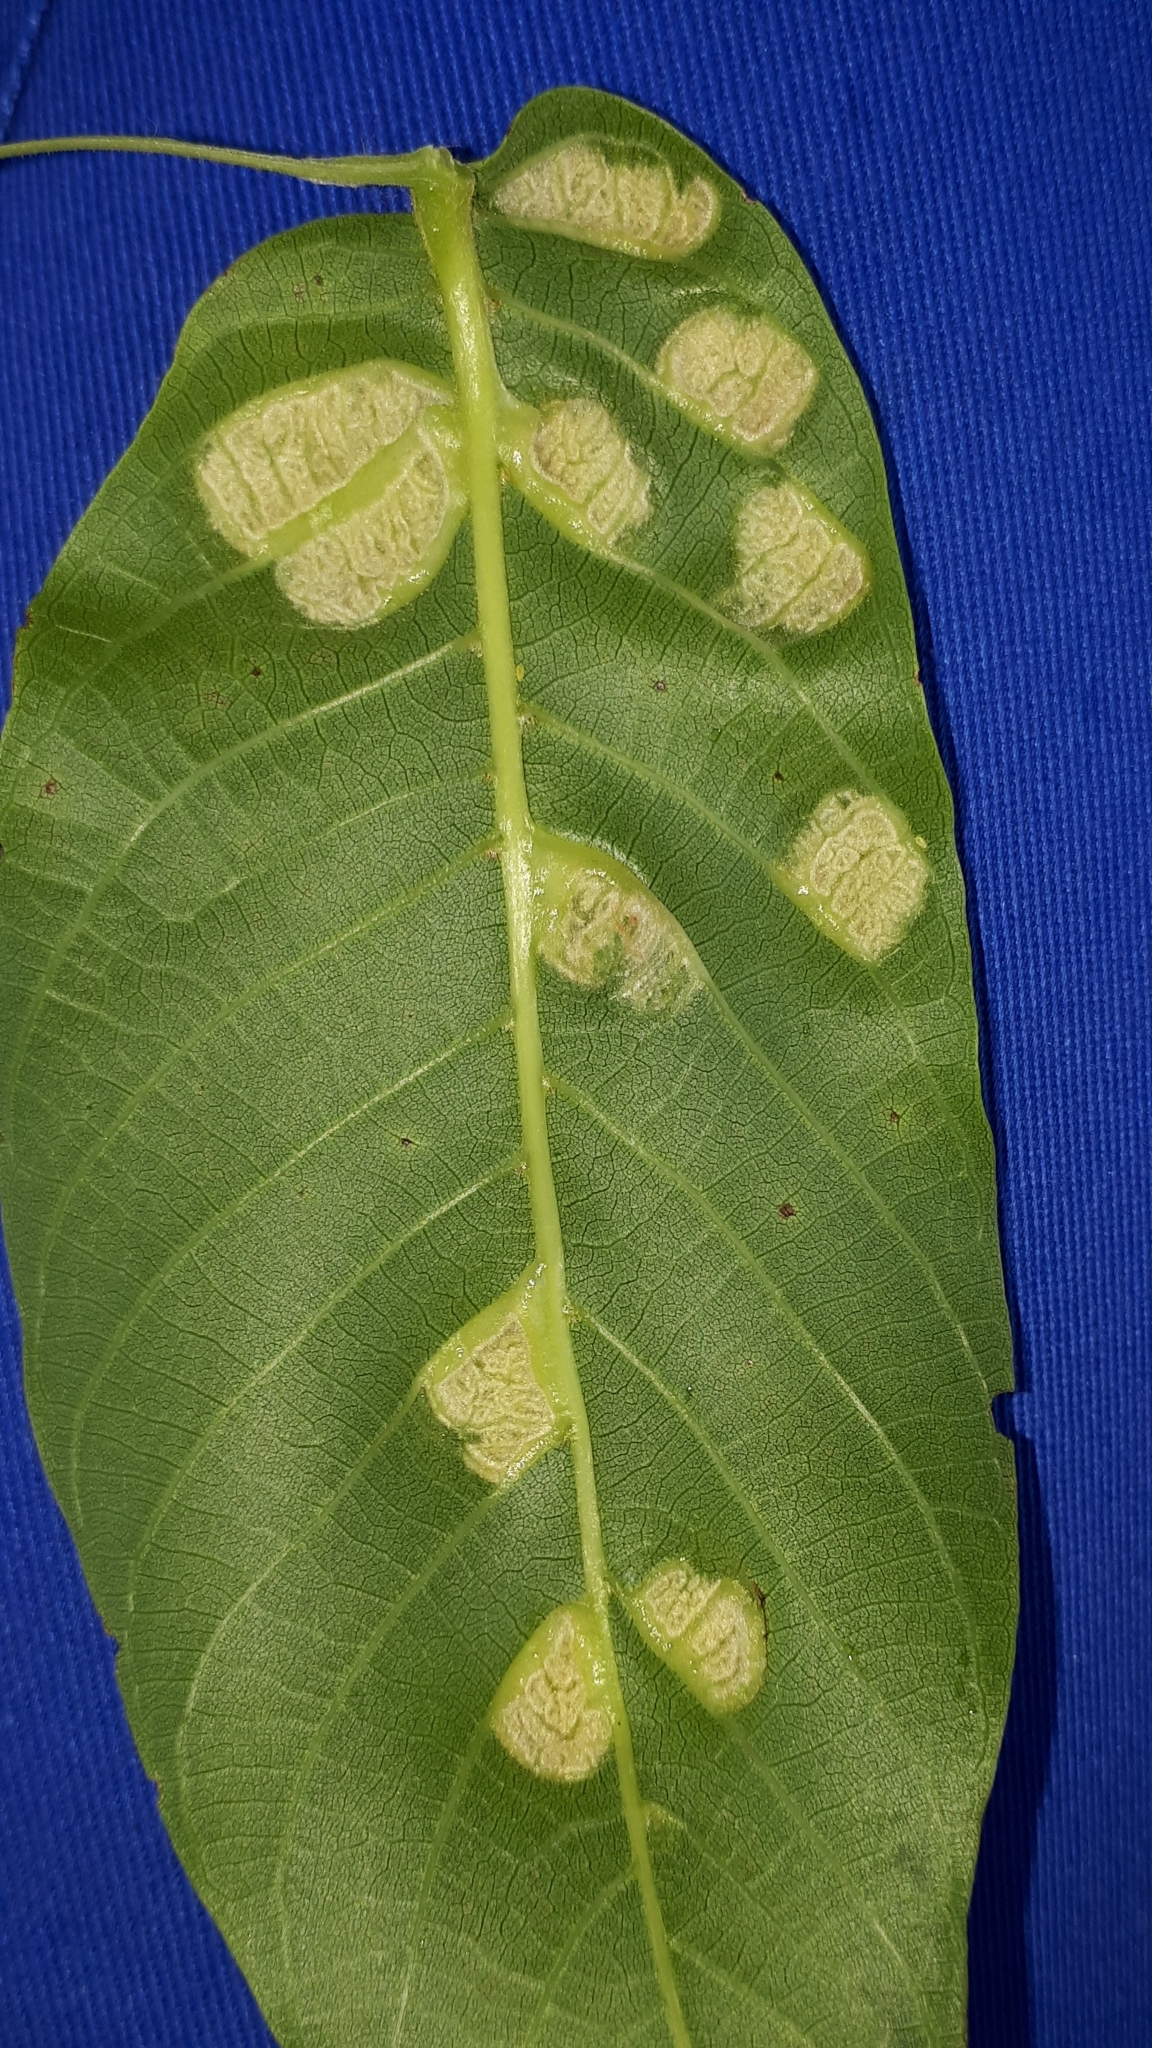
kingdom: Animalia
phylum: Arthropoda
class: Arachnida
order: Trombidiformes
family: Eriophyidae
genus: Aceria
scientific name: Aceria erinea
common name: Persian walnut erineum mite
